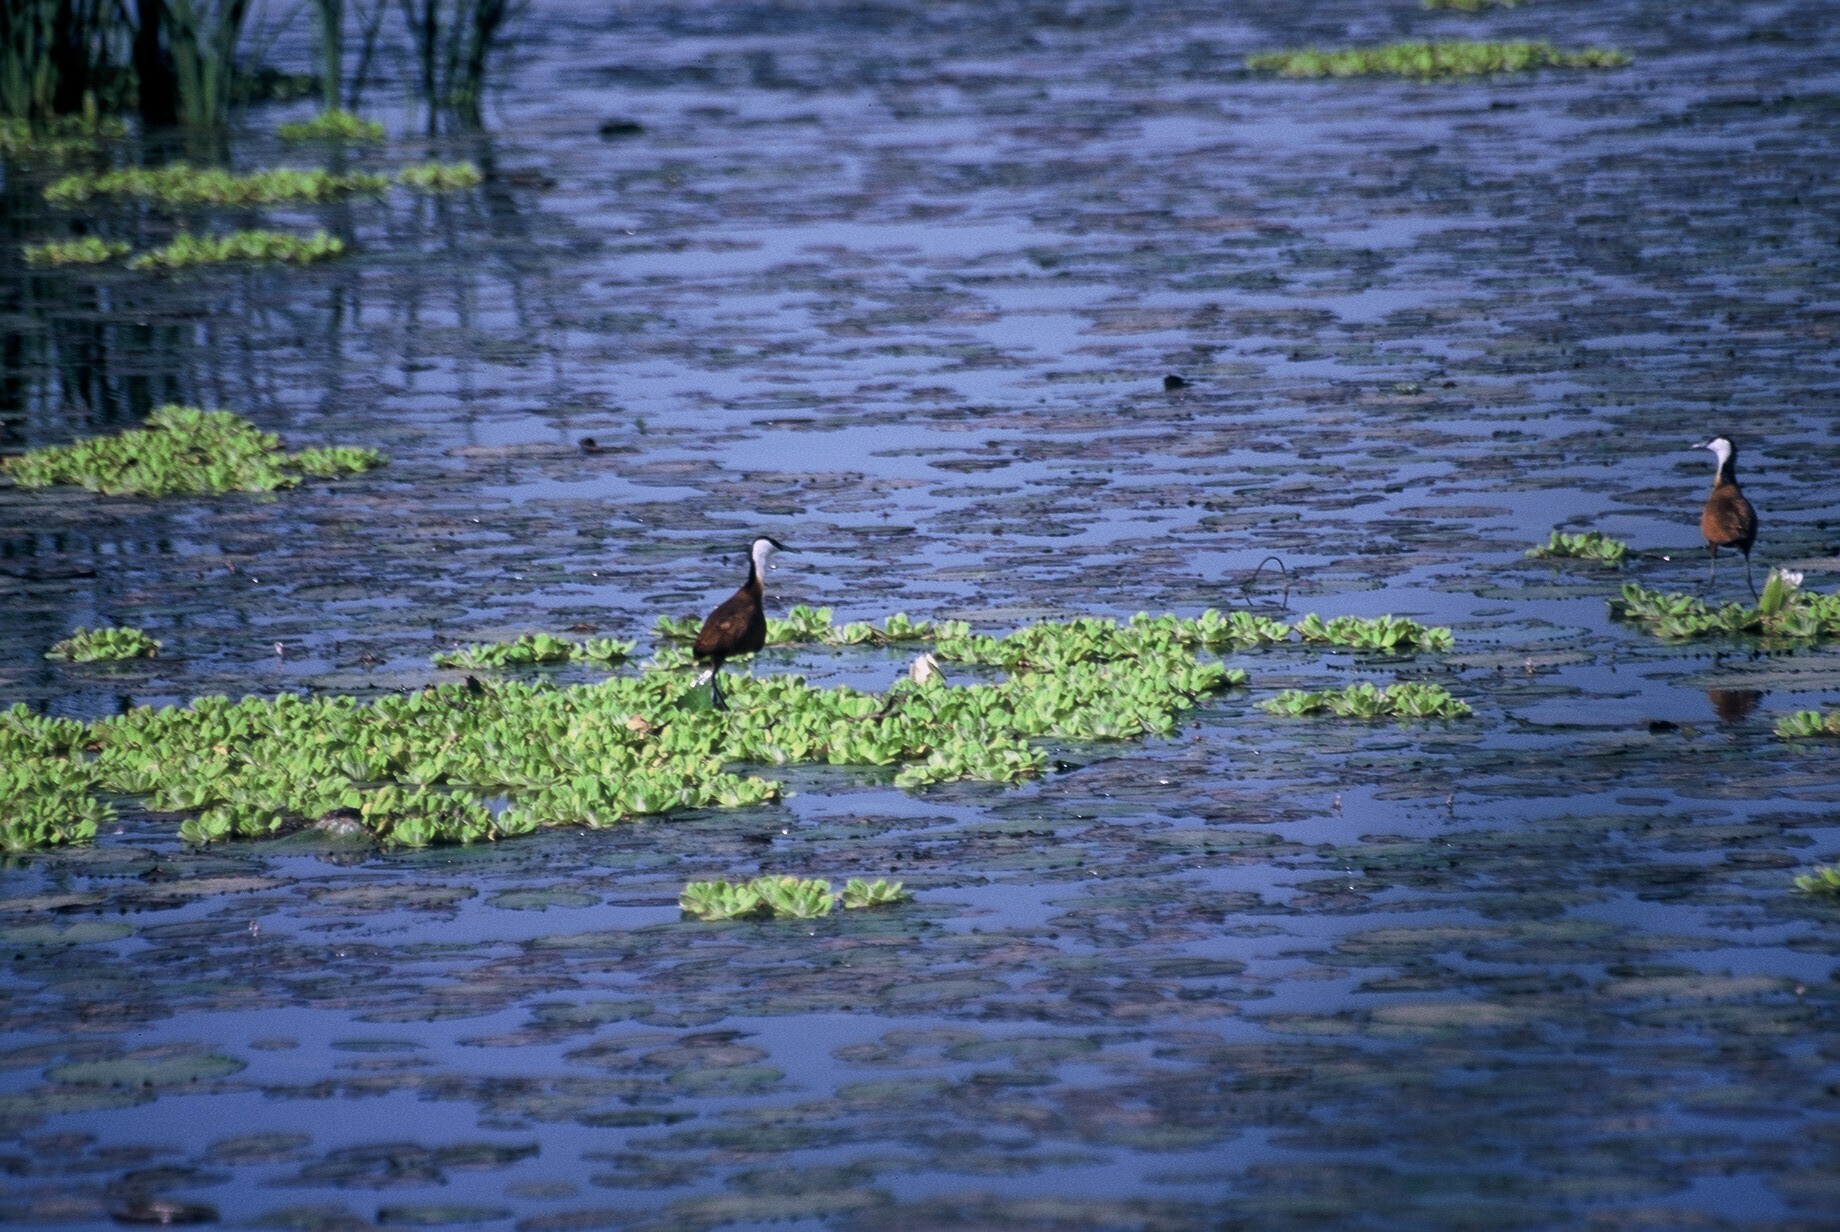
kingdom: Animalia
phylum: Chordata
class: Aves
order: Charadriiformes
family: Jacanidae
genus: Actophilornis
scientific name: Actophilornis africanus
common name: African jacana
